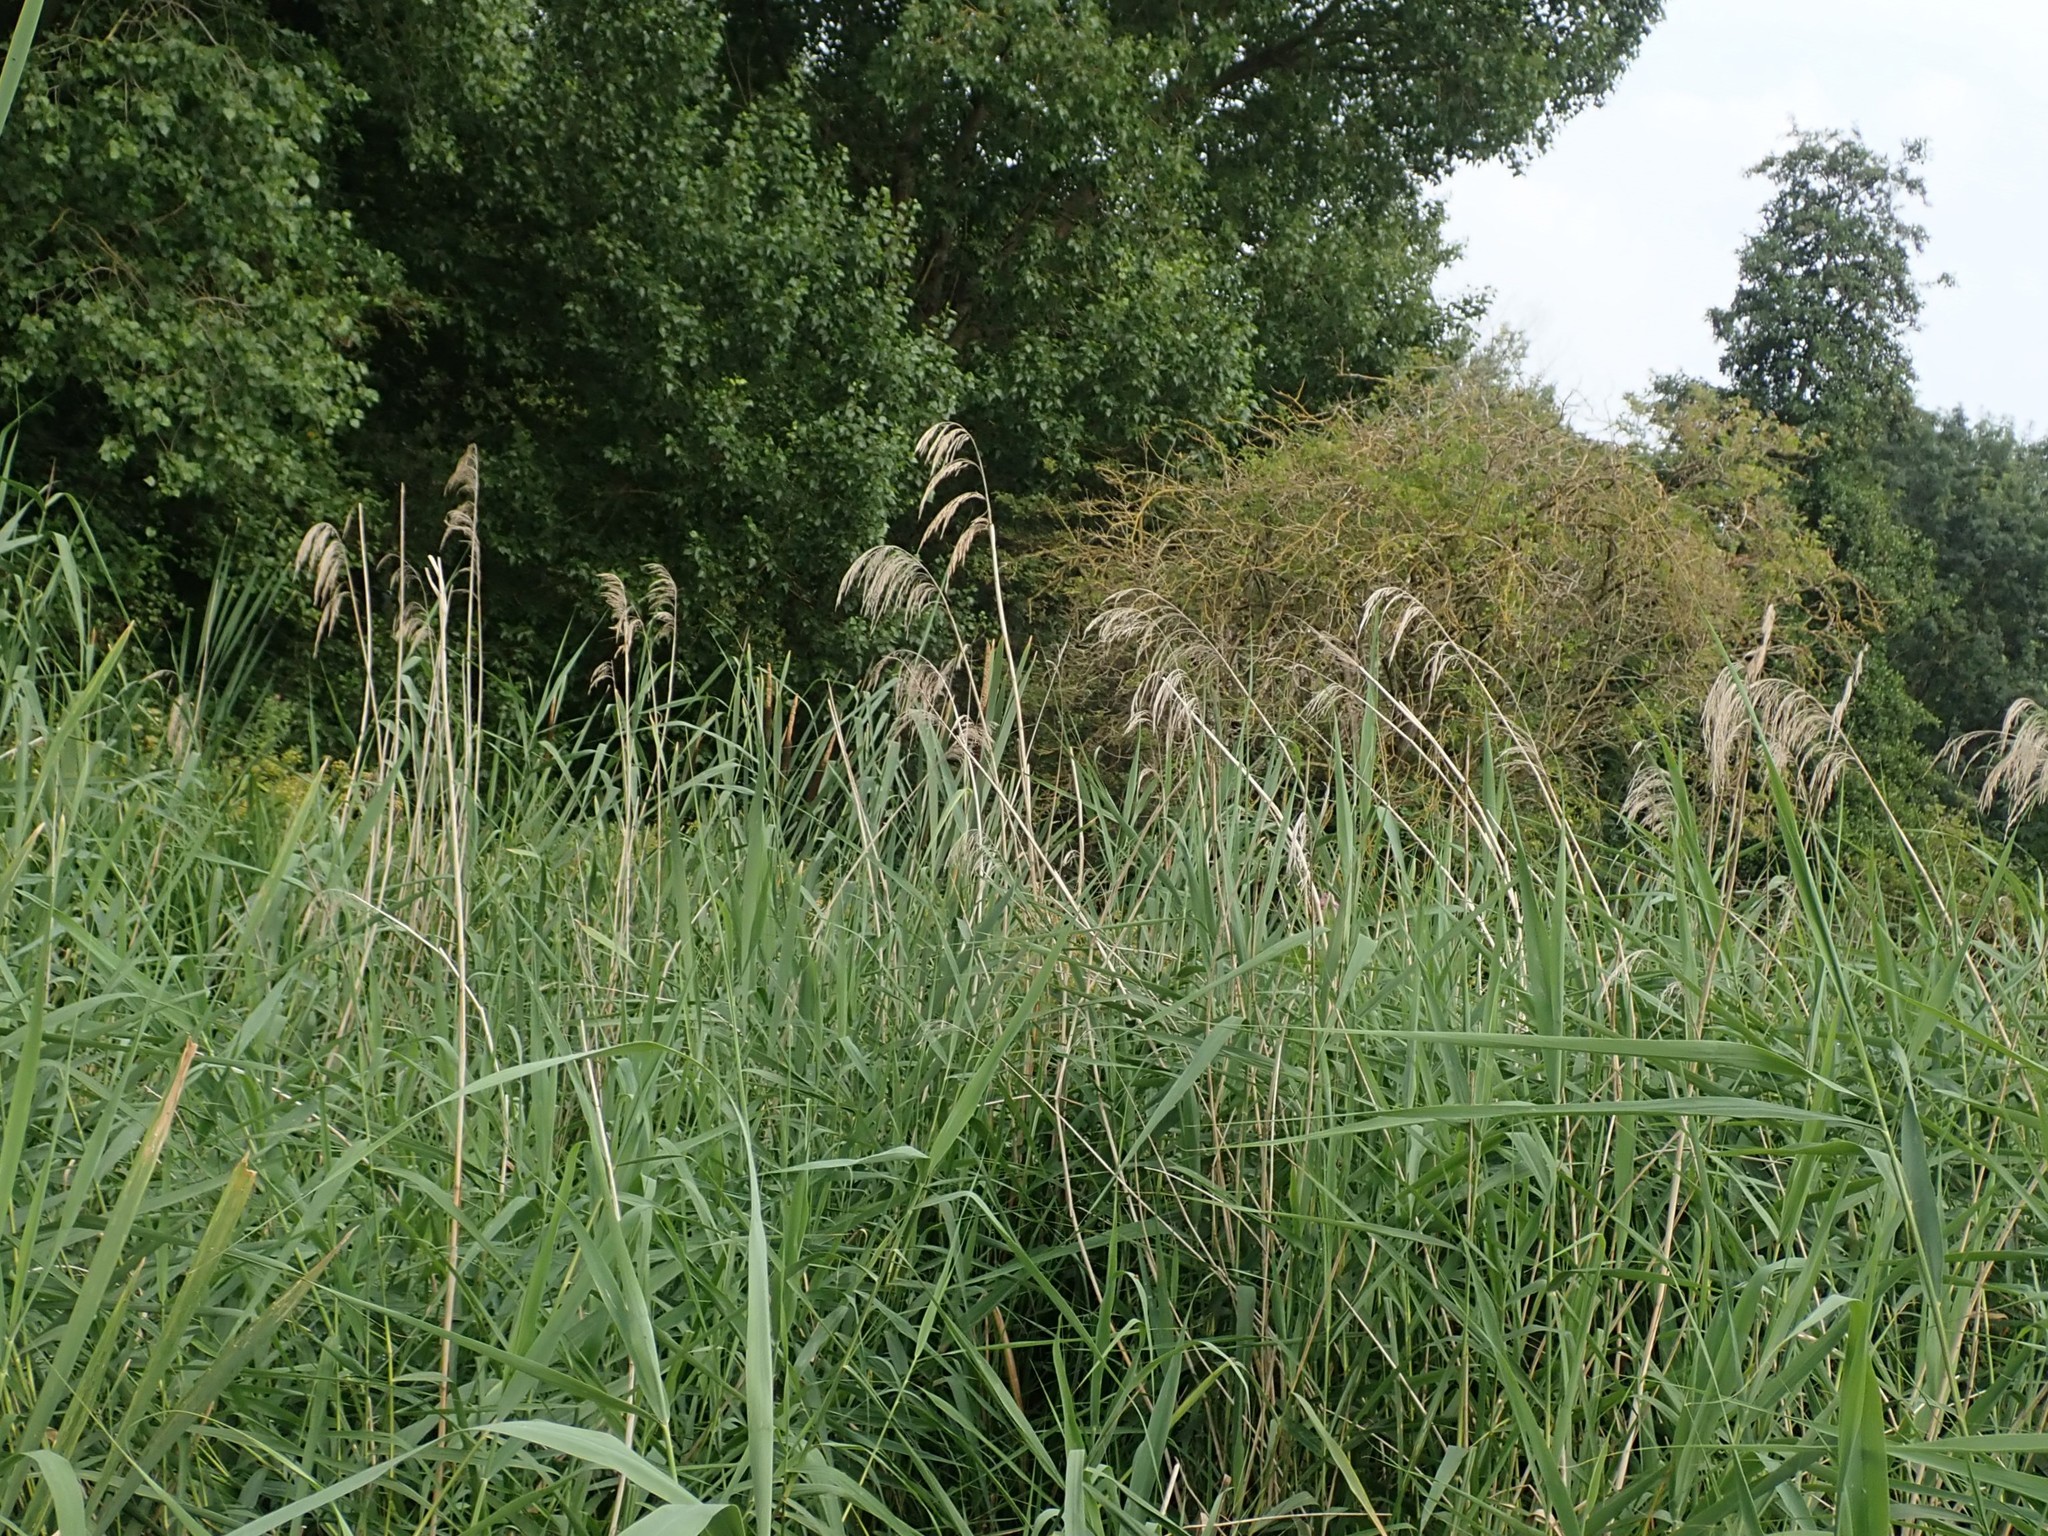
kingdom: Plantae
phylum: Tracheophyta
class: Liliopsida
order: Poales
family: Poaceae
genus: Phragmites
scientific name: Phragmites australis
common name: Common reed
